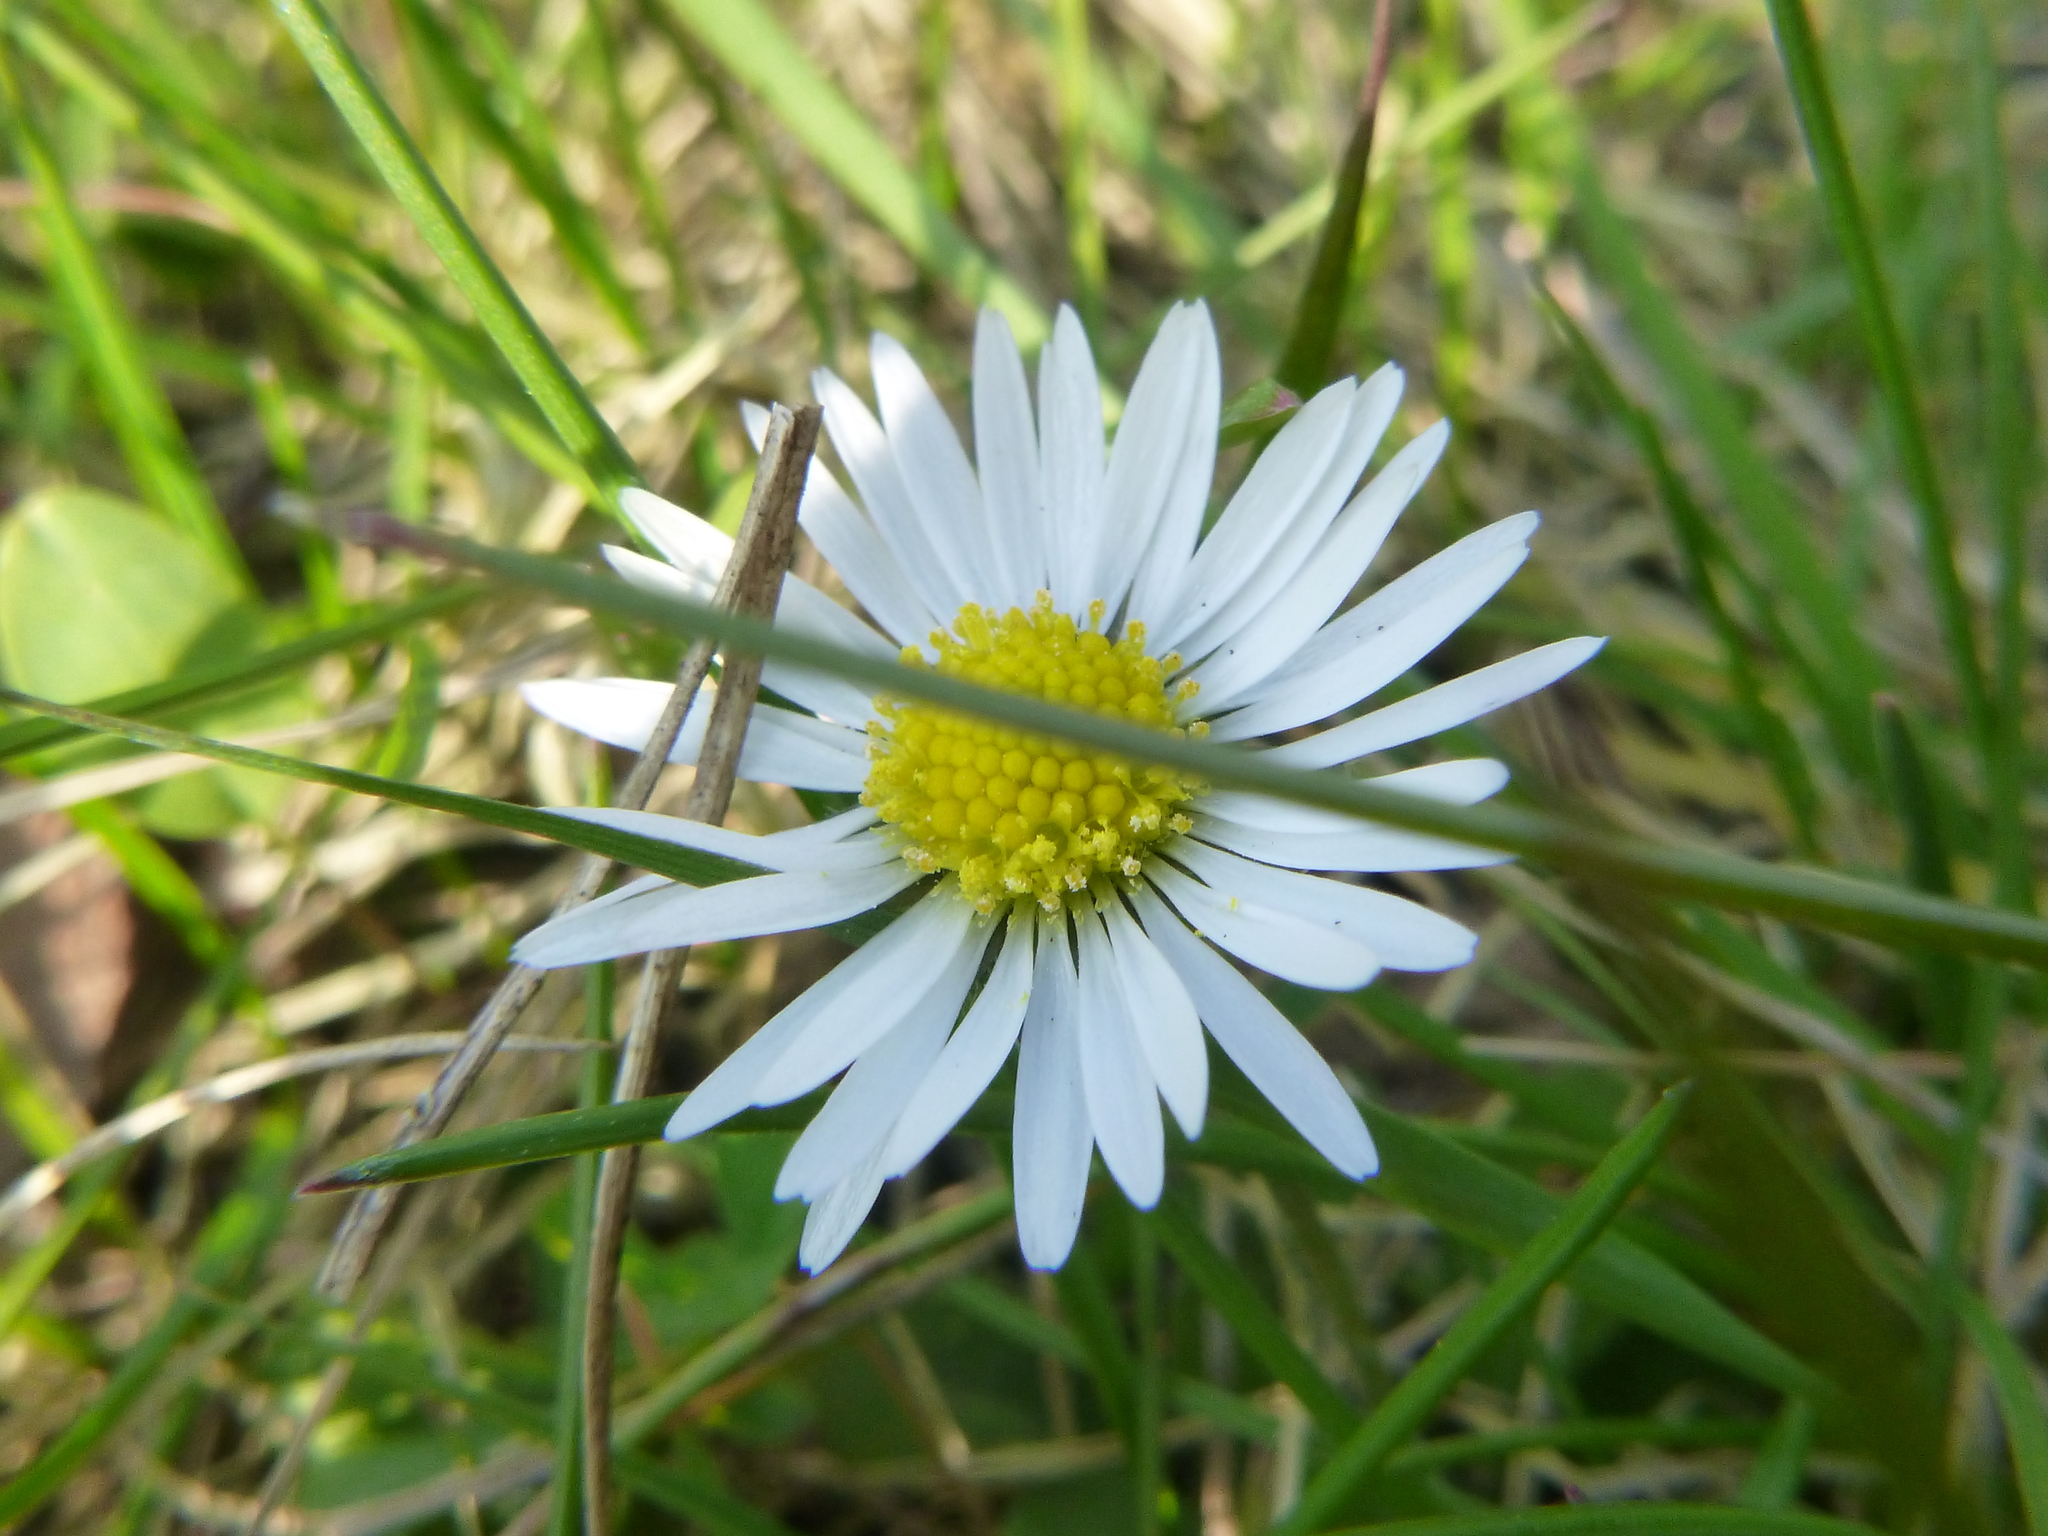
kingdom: Plantae
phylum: Tracheophyta
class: Magnoliopsida
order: Asterales
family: Asteraceae
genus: Bellis
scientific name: Bellis perennis
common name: Lawndaisy
